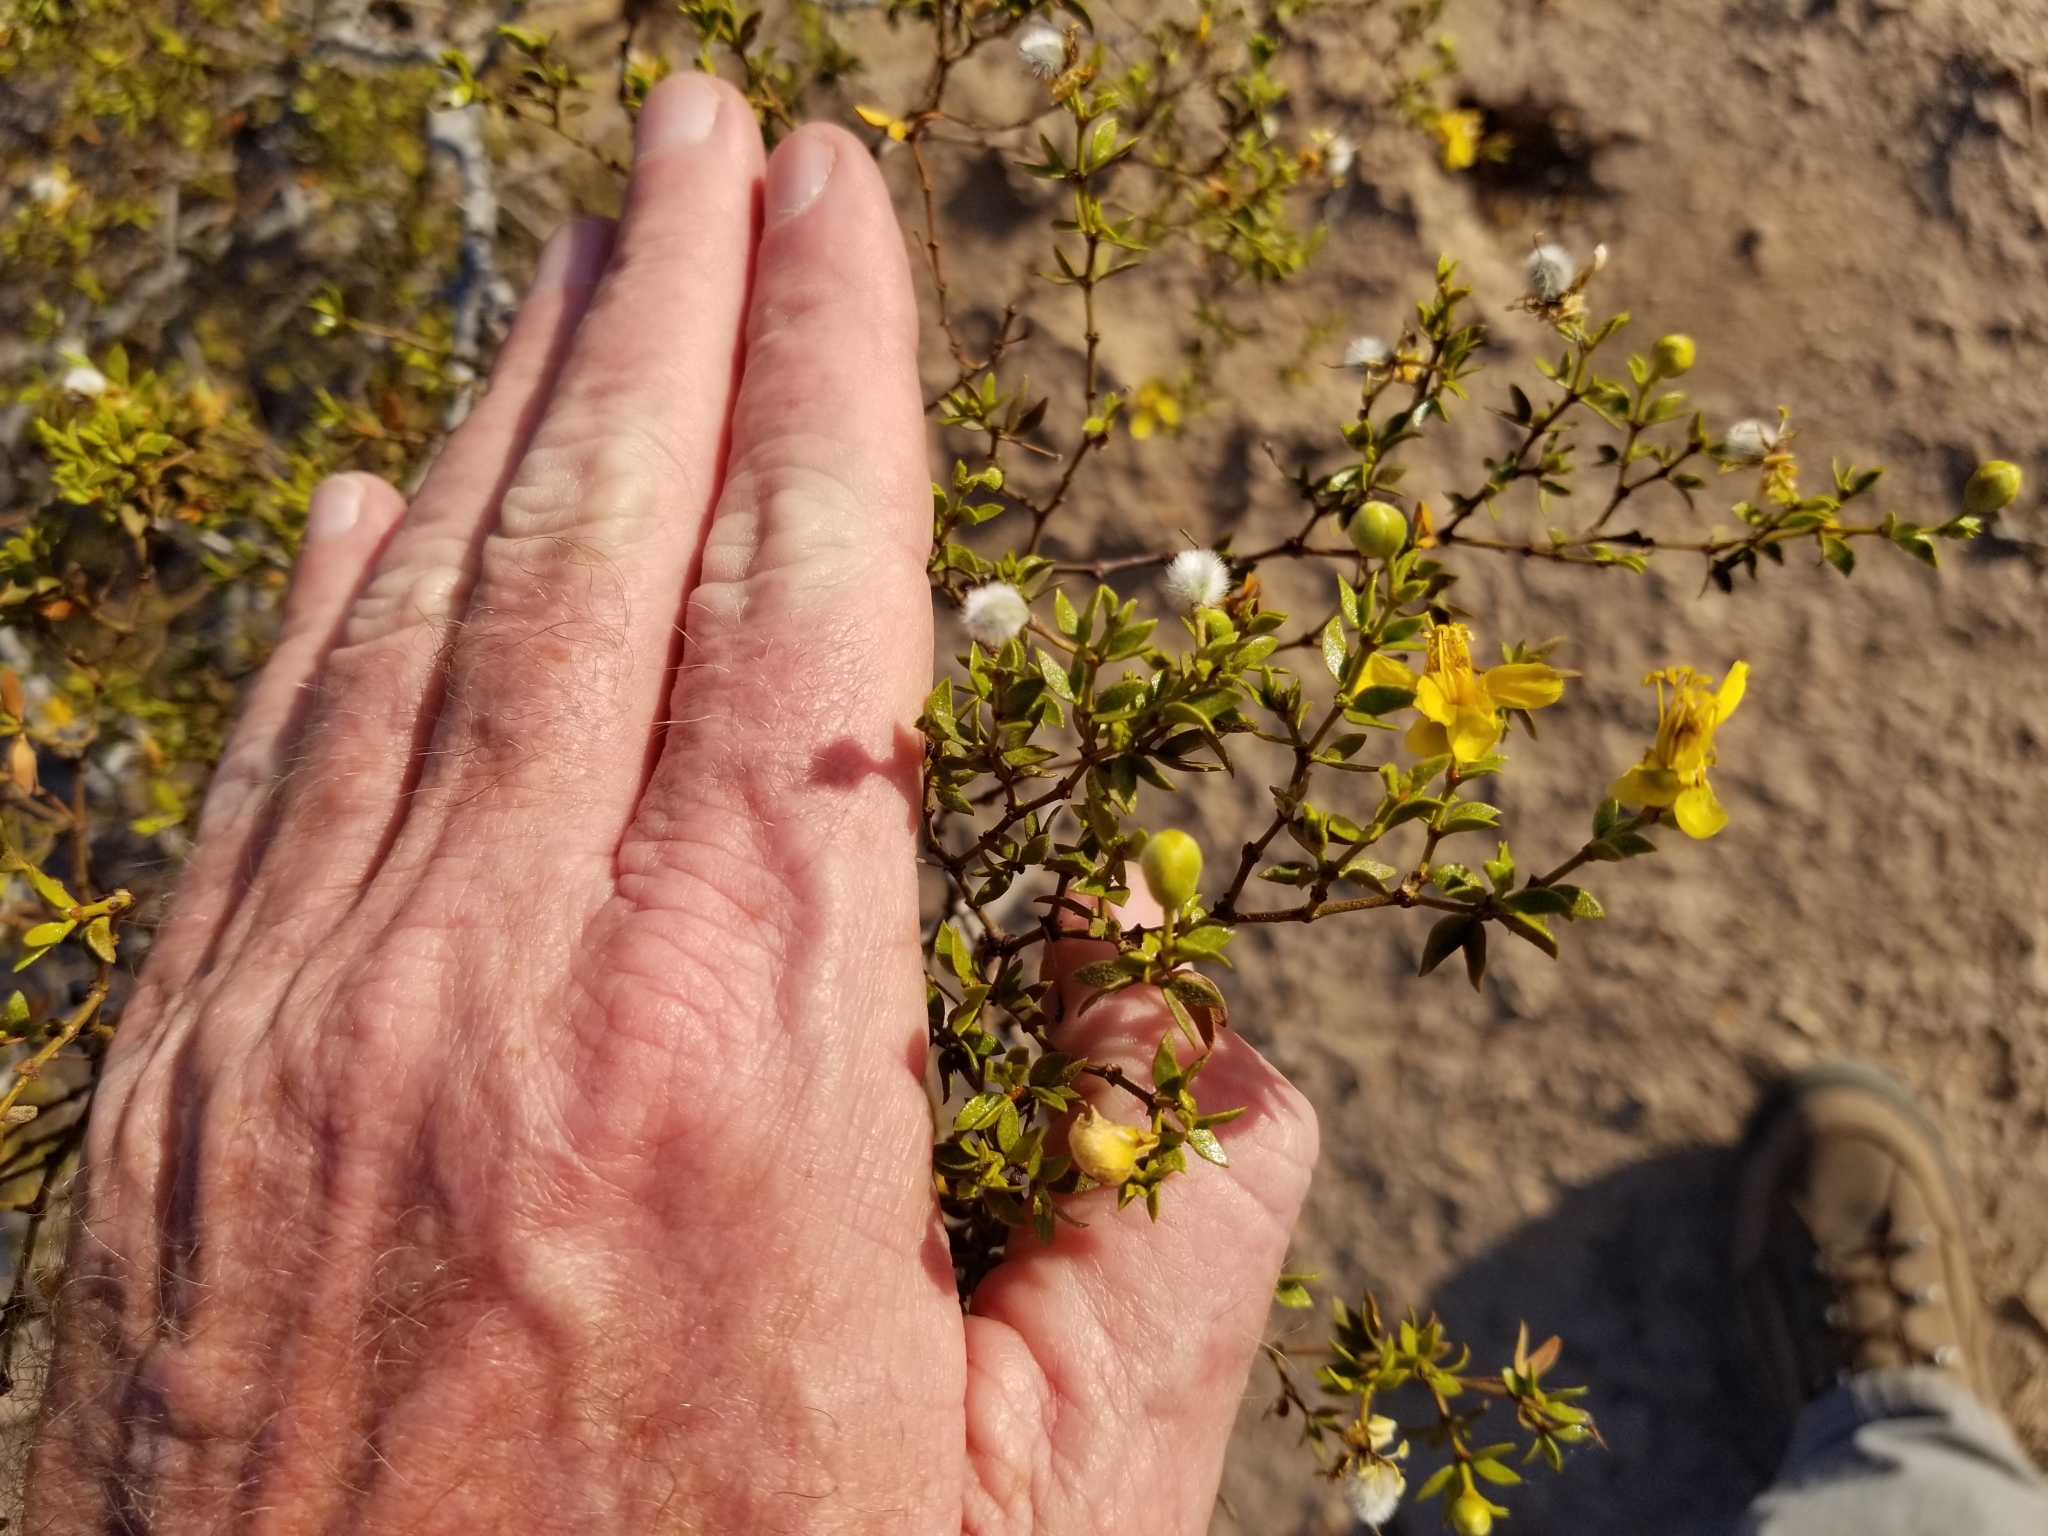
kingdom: Plantae
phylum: Tracheophyta
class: Magnoliopsida
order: Zygophyllales
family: Zygophyllaceae
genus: Larrea
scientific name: Larrea tridentata
